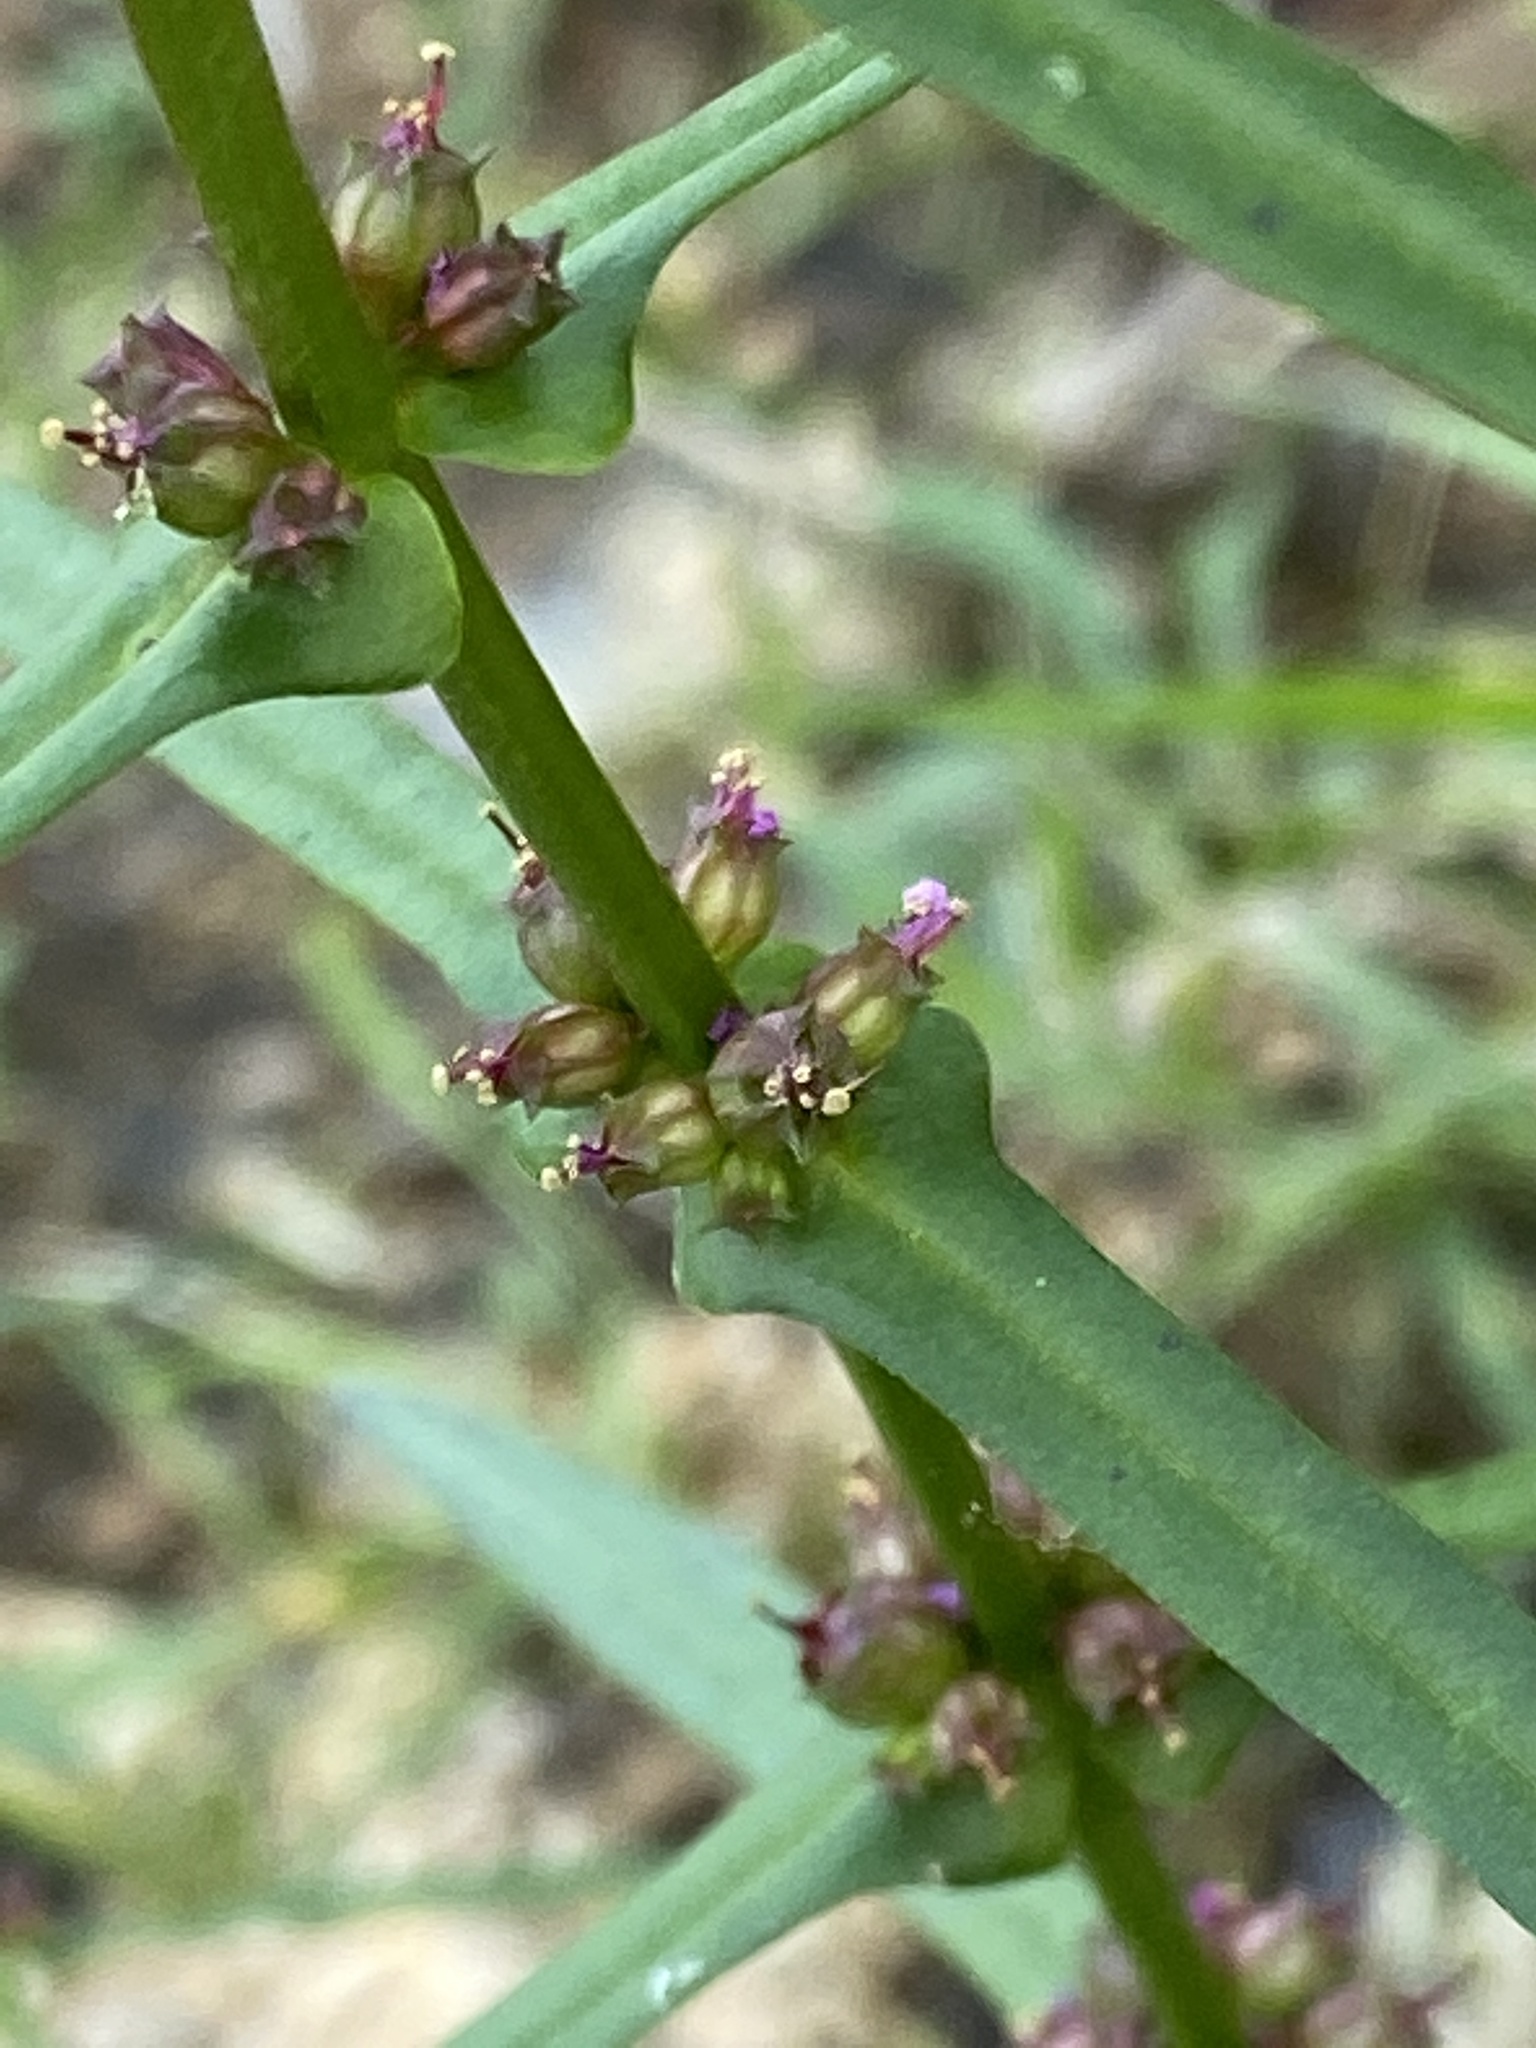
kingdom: Plantae
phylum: Tracheophyta
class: Magnoliopsida
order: Myrtales
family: Lythraceae
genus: Ammannia
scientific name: Ammannia coccinea
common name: Valley redstem
